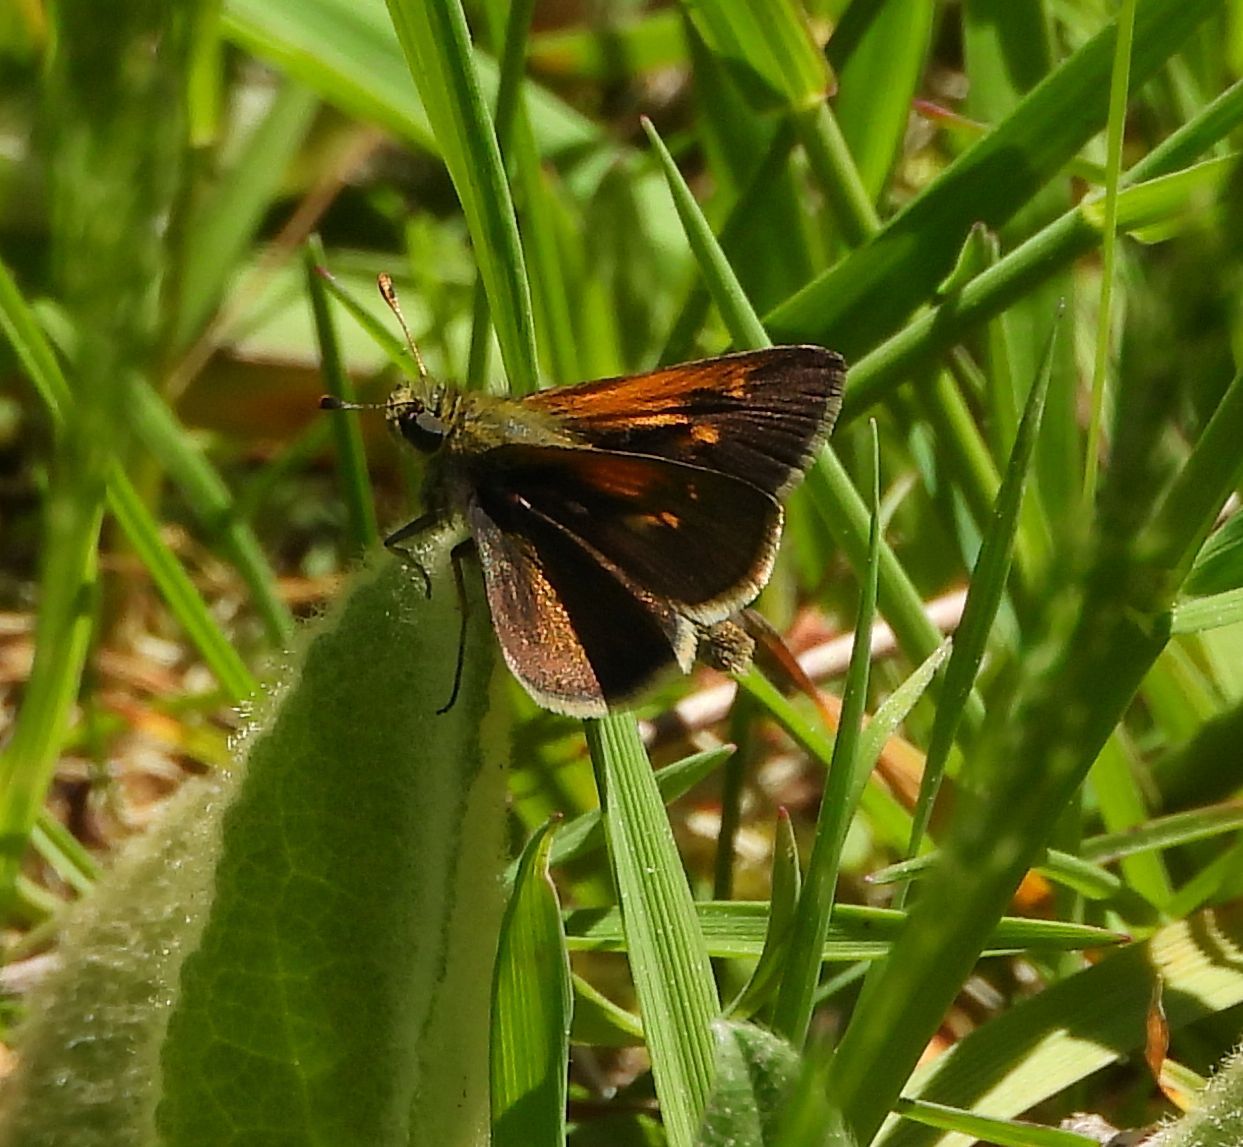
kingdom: Animalia
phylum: Arthropoda
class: Insecta
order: Lepidoptera
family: Hesperiidae
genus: Polites
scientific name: Polites themistocles
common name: Tawny-edged skipper
